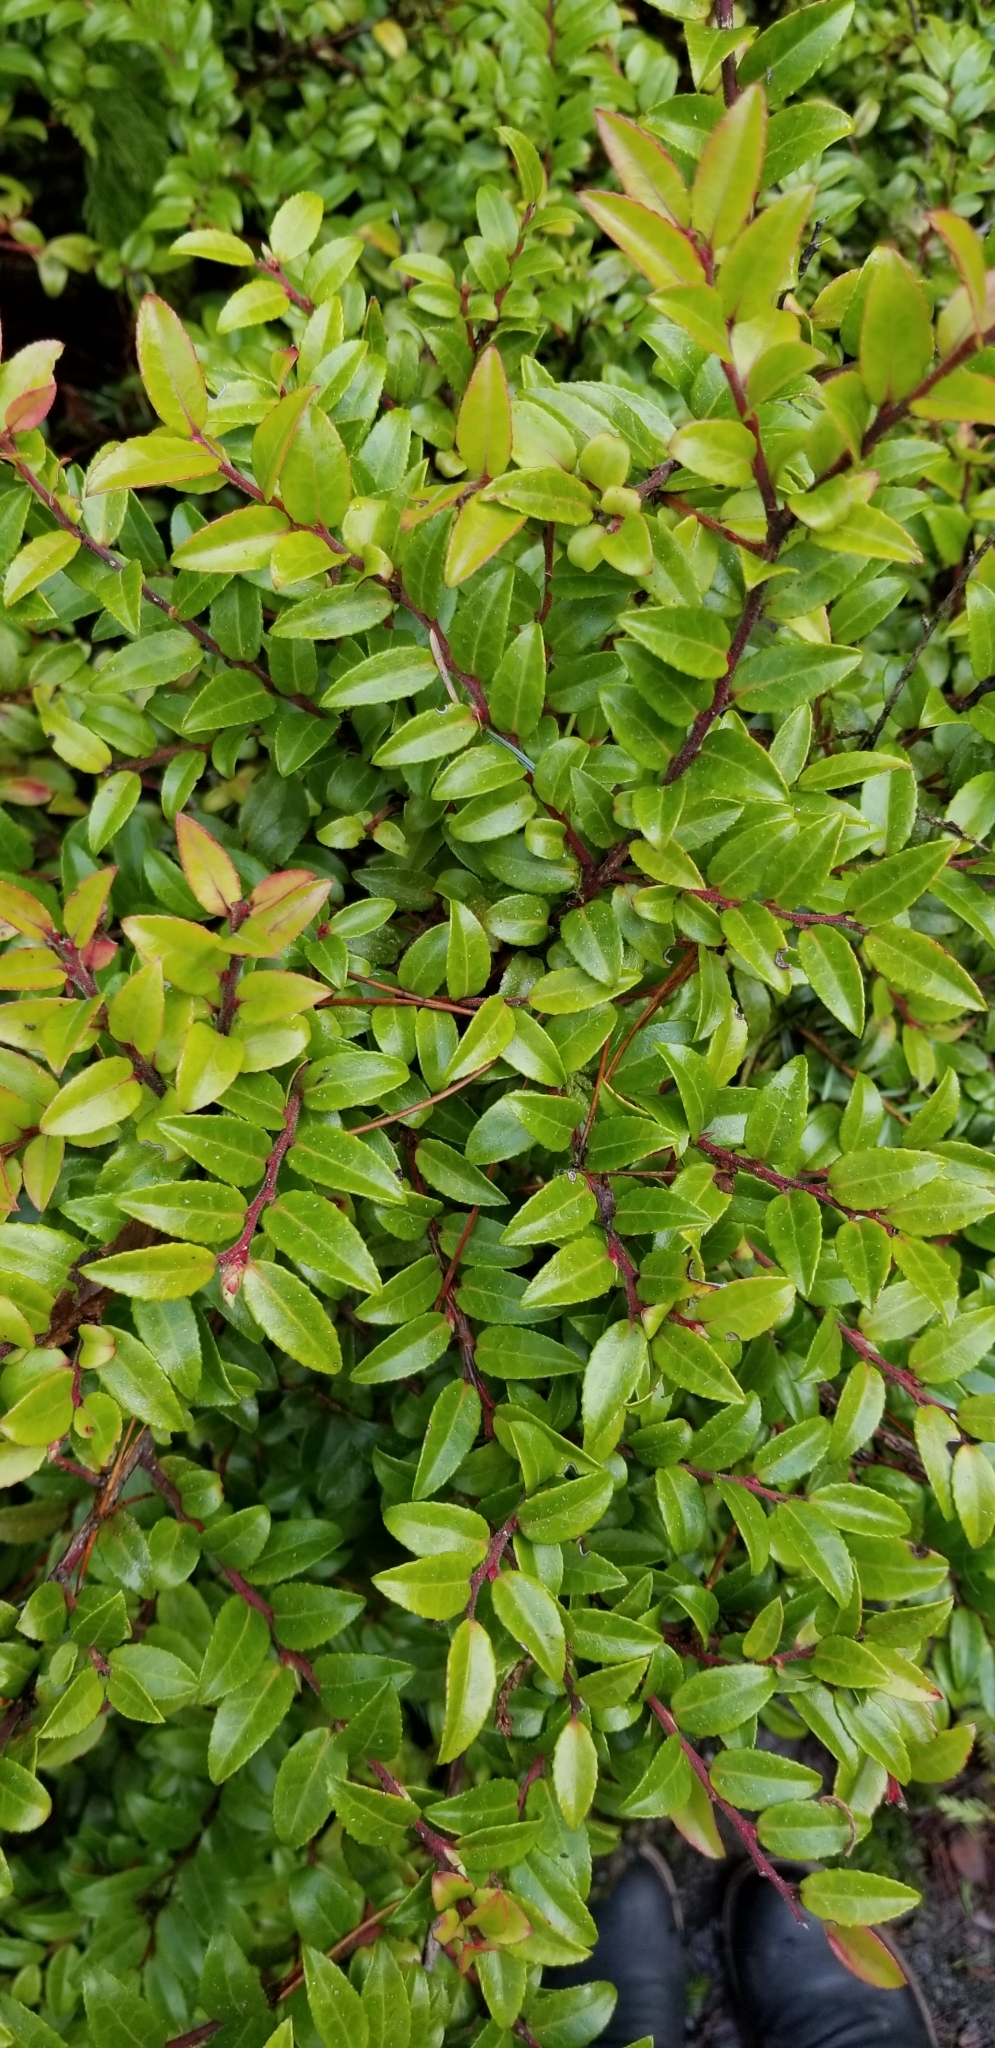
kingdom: Plantae
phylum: Tracheophyta
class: Magnoliopsida
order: Ericales
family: Ericaceae
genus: Vaccinium
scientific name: Vaccinium ovatum
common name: California-huckleberry
